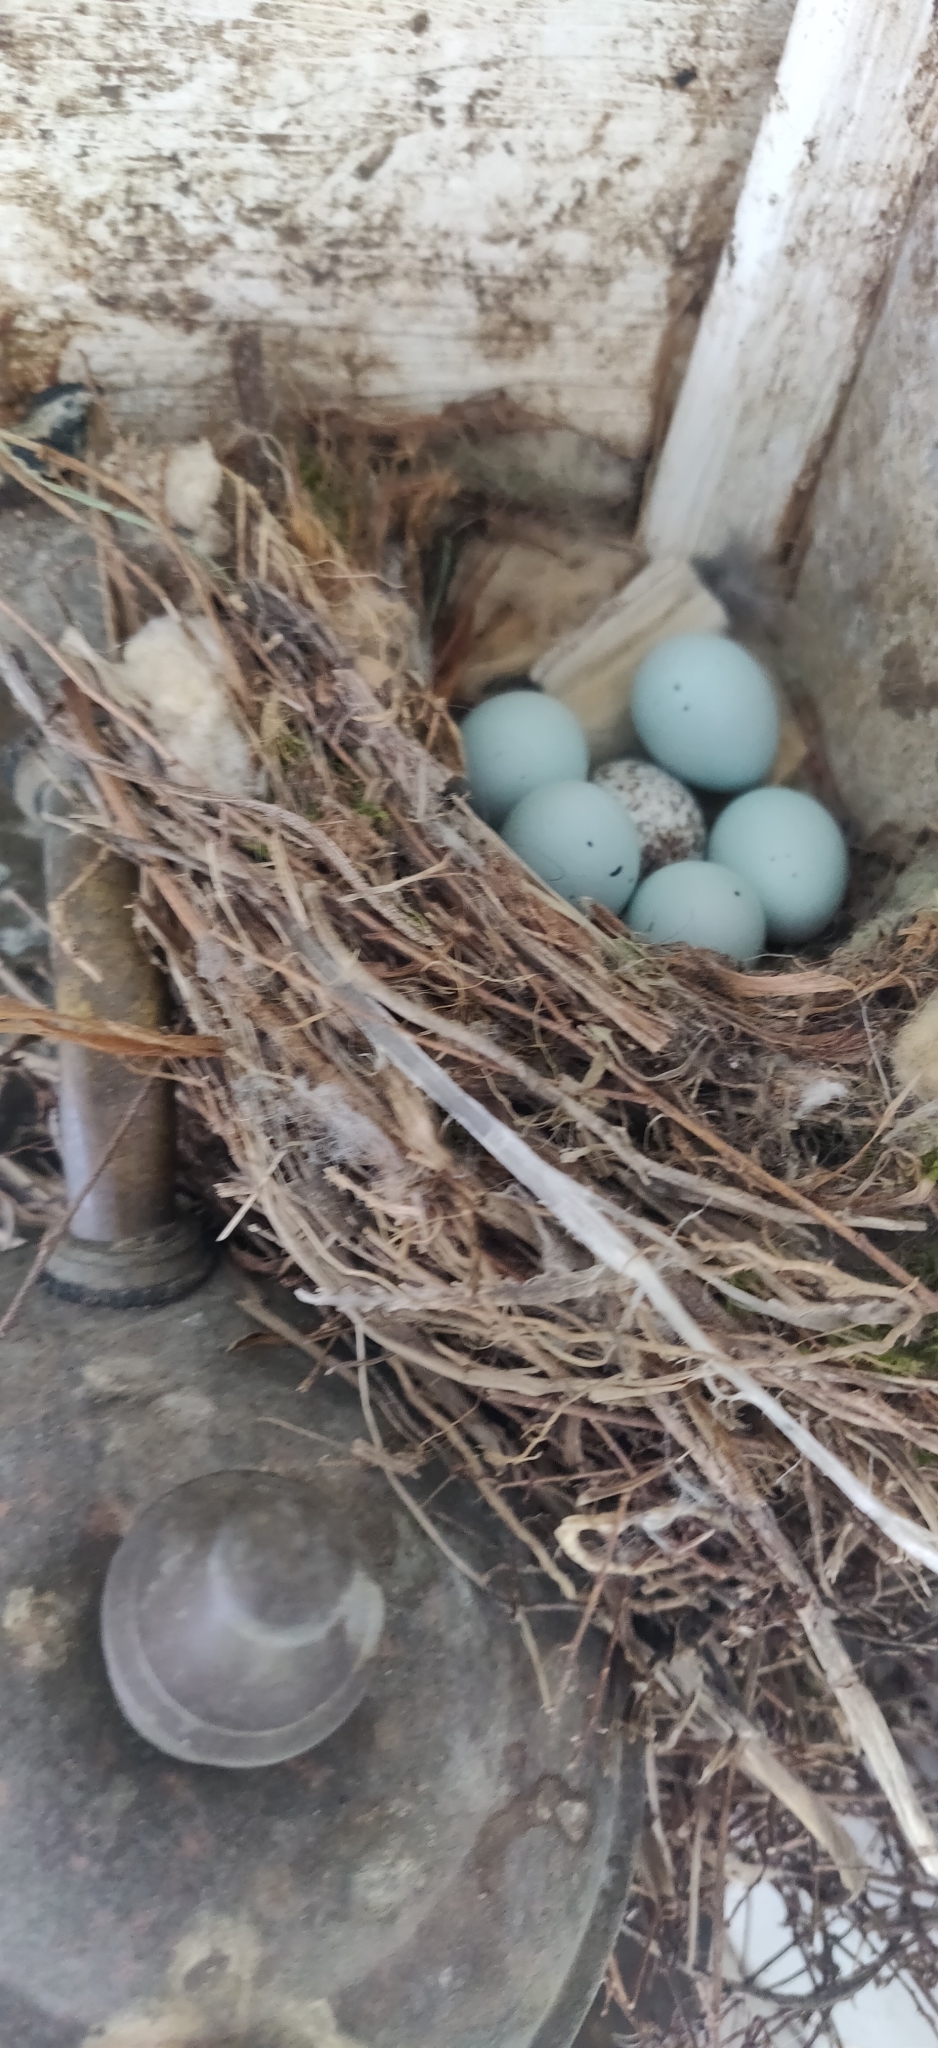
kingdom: Animalia
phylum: Chordata
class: Aves
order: Passeriformes
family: Fringillidae
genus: Haemorhous
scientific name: Haemorhous mexicanus
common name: House finch
